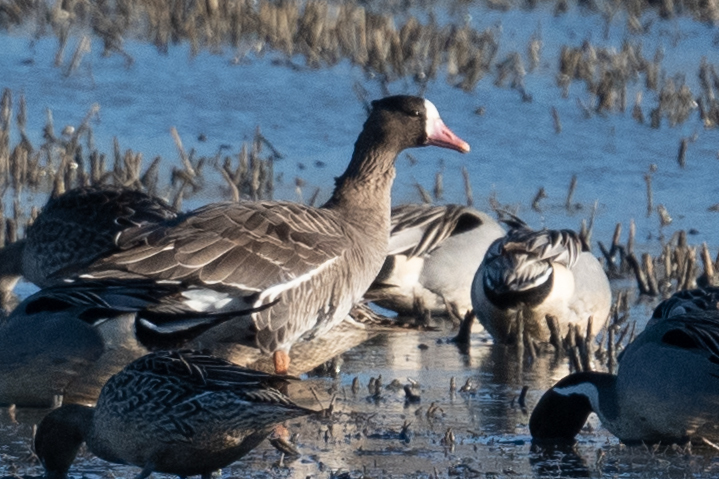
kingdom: Animalia
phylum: Chordata
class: Aves
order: Anseriformes
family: Anatidae
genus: Anser
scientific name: Anser albifrons
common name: Greater white-fronted goose
